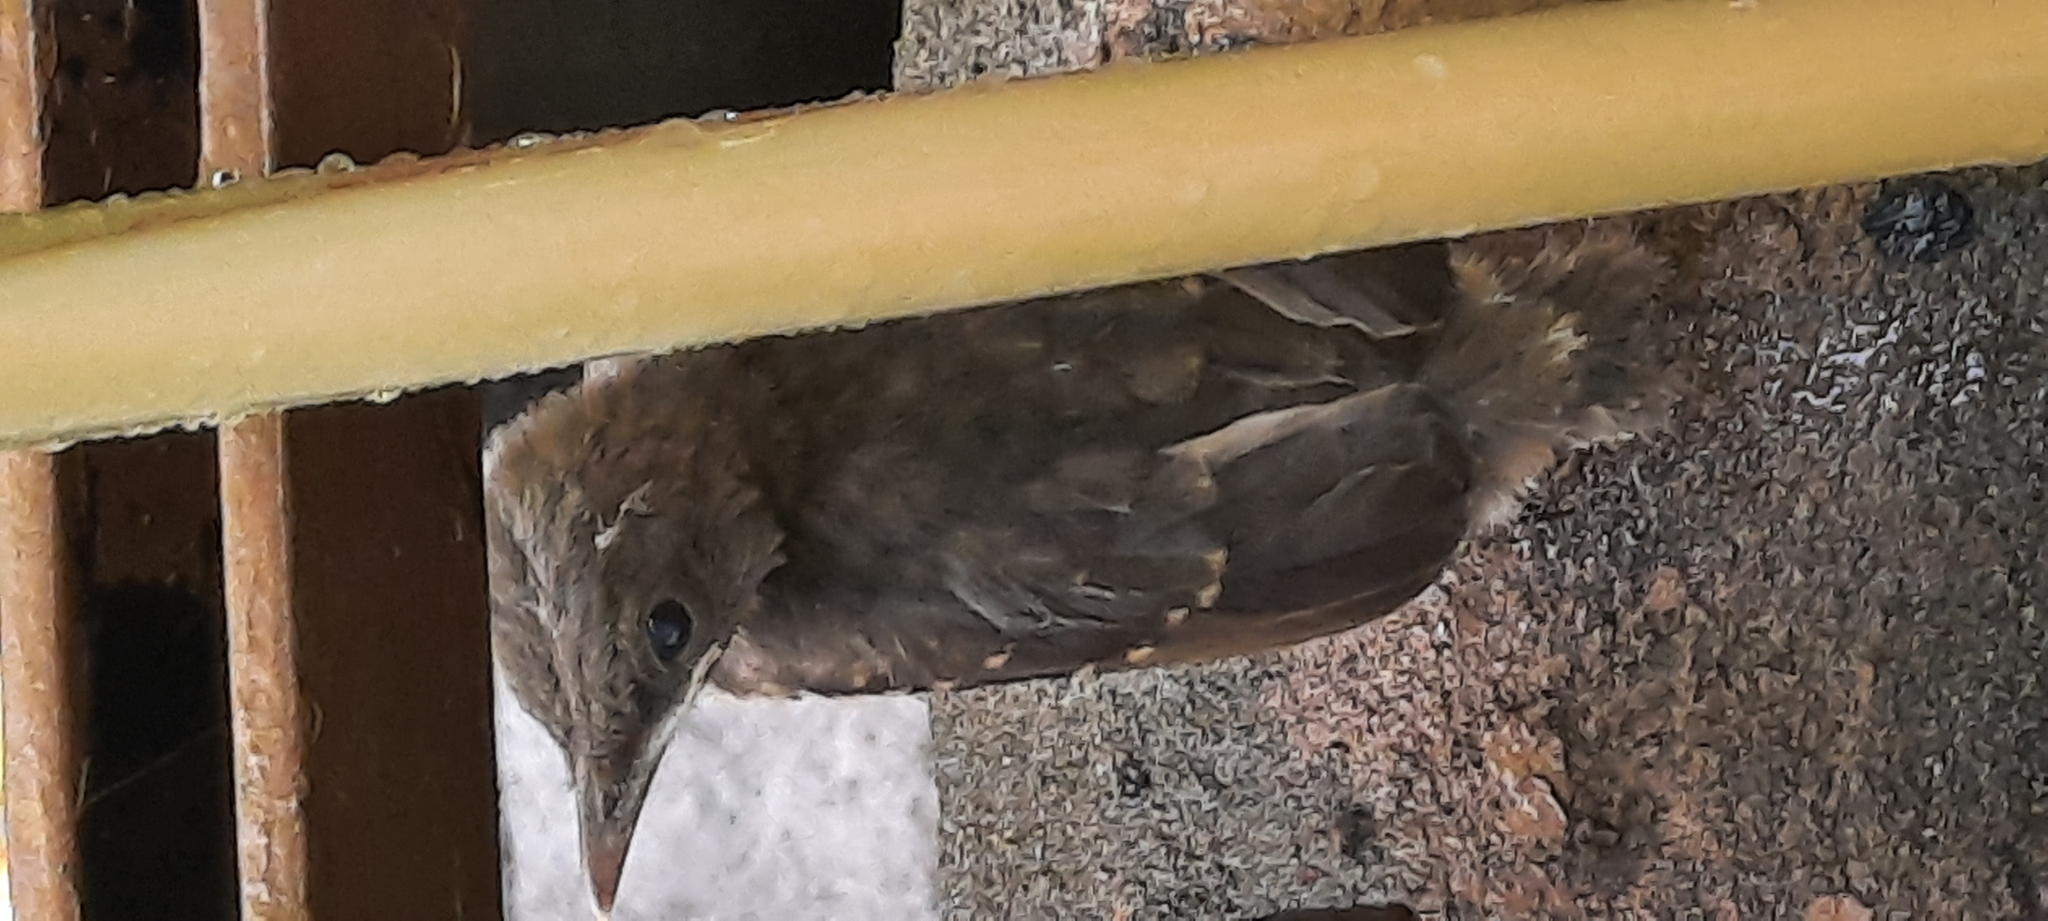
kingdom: Animalia
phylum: Chordata
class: Aves
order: Passeriformes
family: Turdidae
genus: Turdus
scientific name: Turdus grayi
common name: Clay-colored thrush
